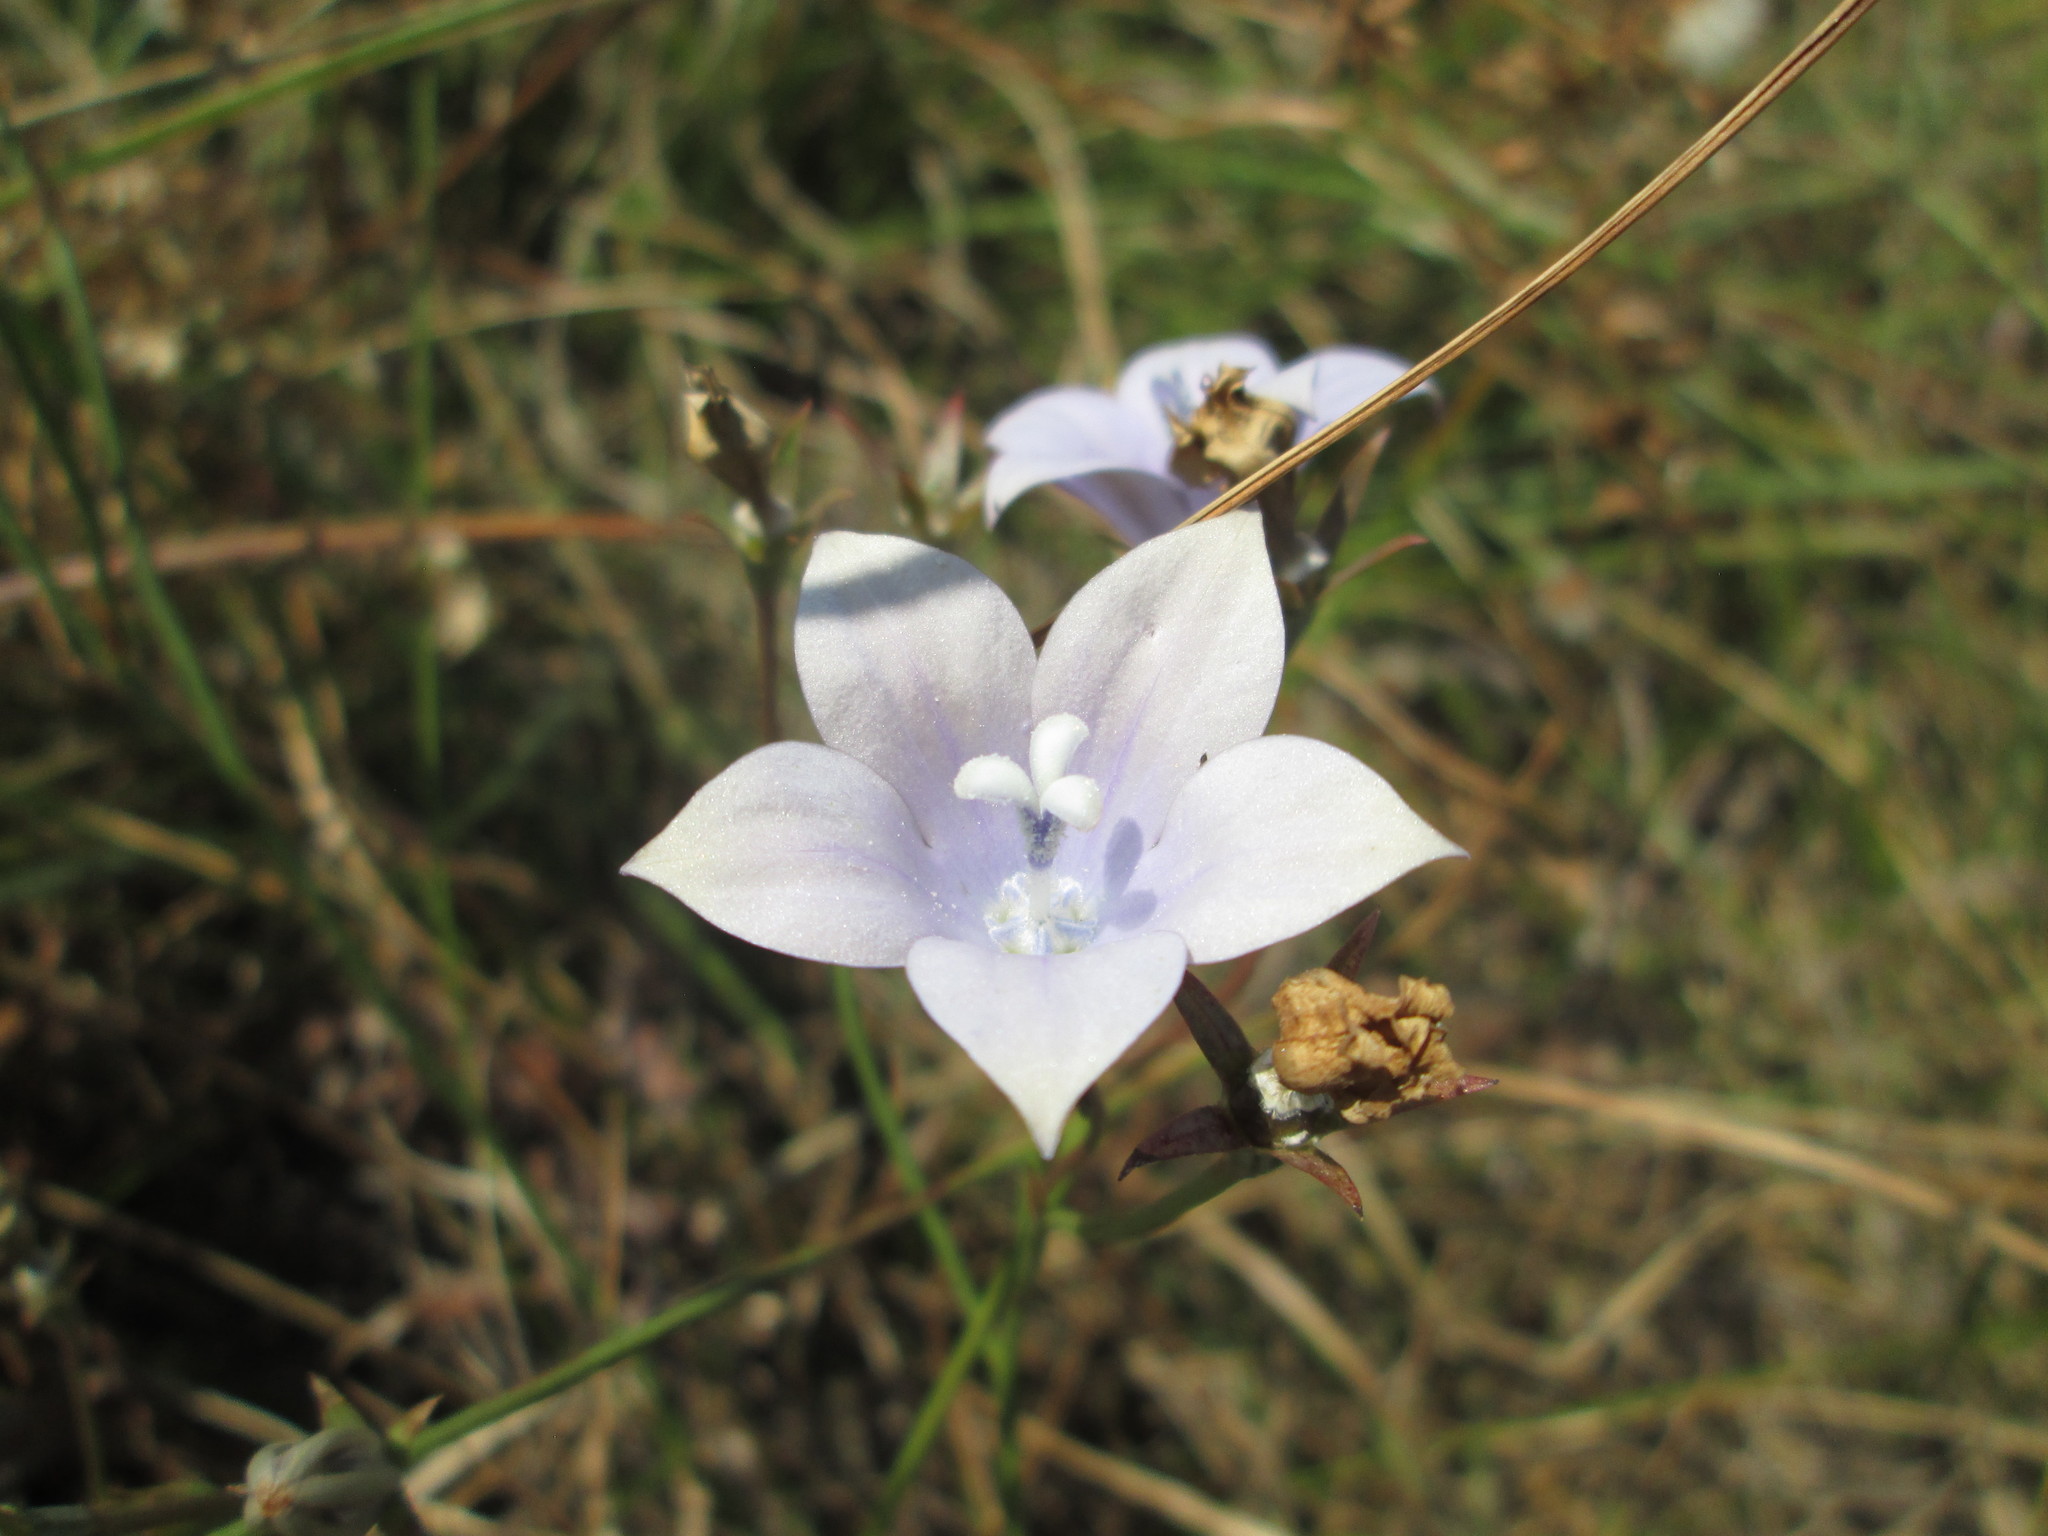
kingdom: Plantae
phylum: Tracheophyta
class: Magnoliopsida
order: Asterales
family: Campanulaceae
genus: Wahlenbergia
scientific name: Wahlenbergia undulata
